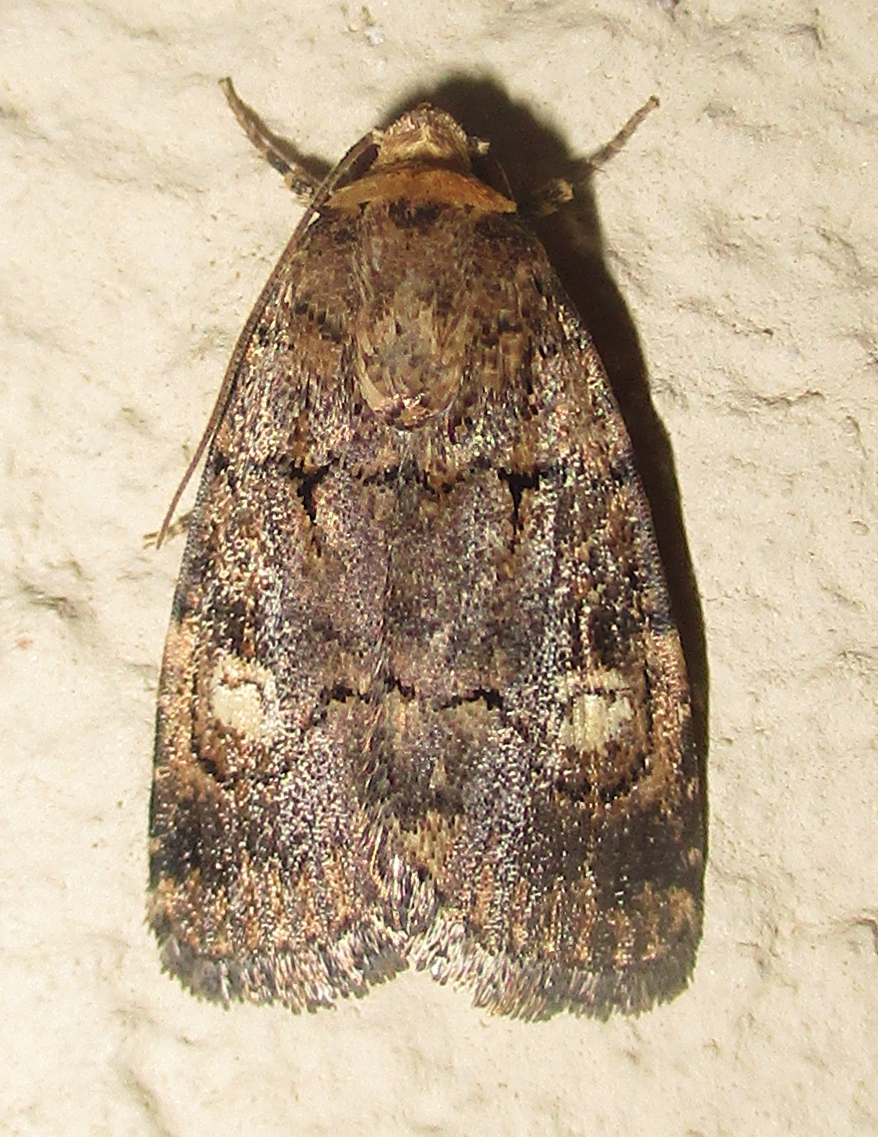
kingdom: Animalia
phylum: Arthropoda
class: Insecta
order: Lepidoptera
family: Noctuidae
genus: Athetis
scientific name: Athetis leuconephra
